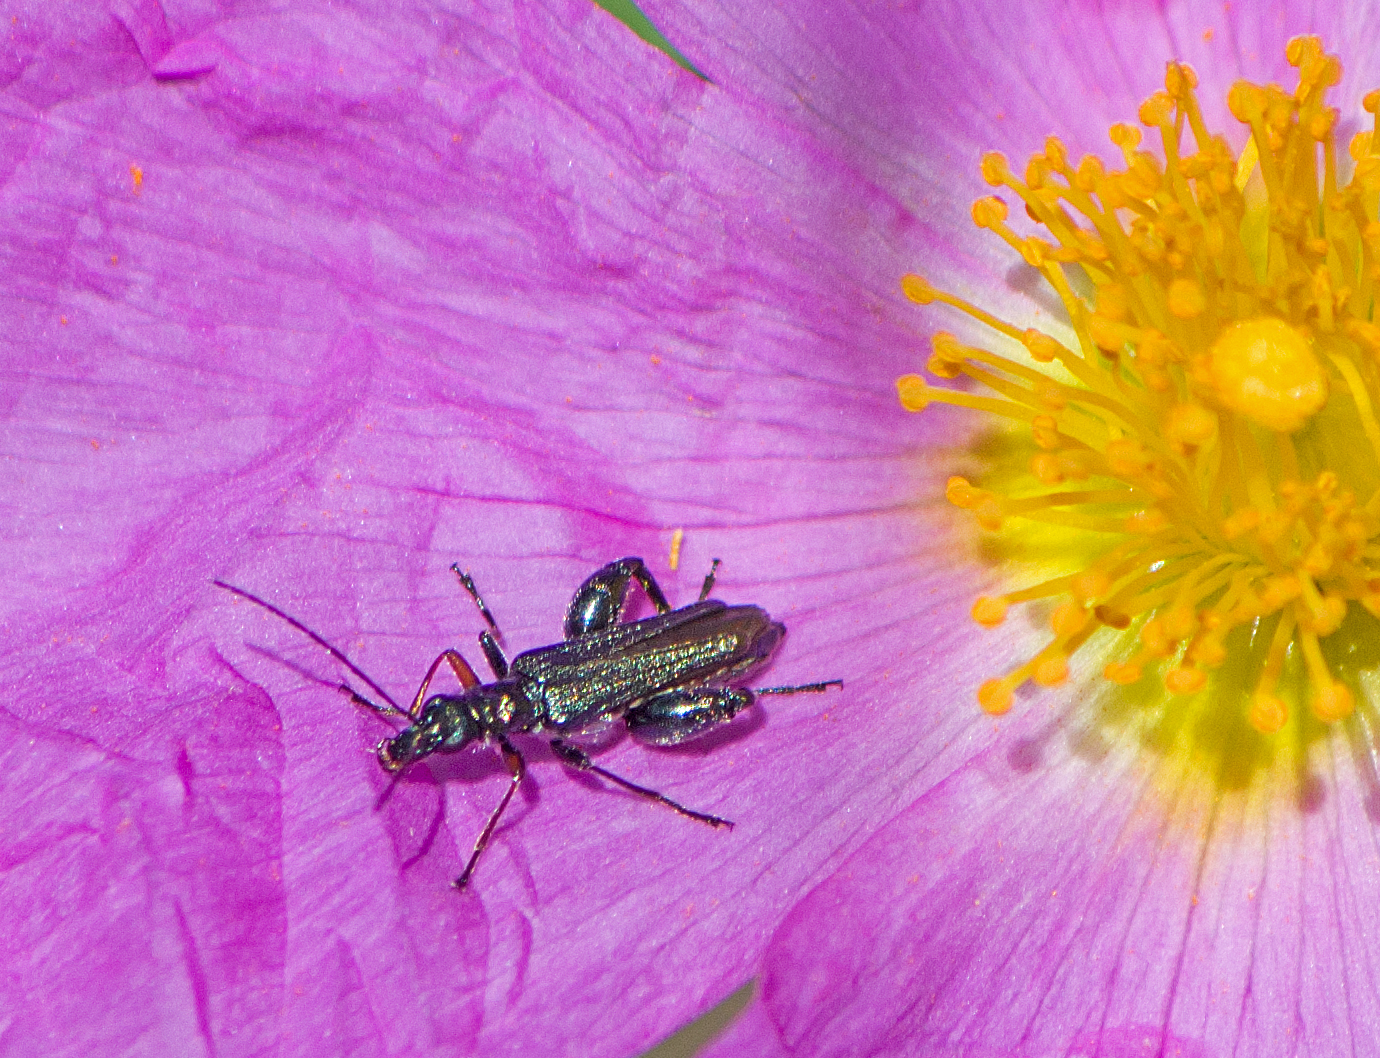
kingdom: Animalia
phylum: Arthropoda
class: Insecta
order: Coleoptera
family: Oedemeridae
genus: Oedemera
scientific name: Oedemera flavipes
